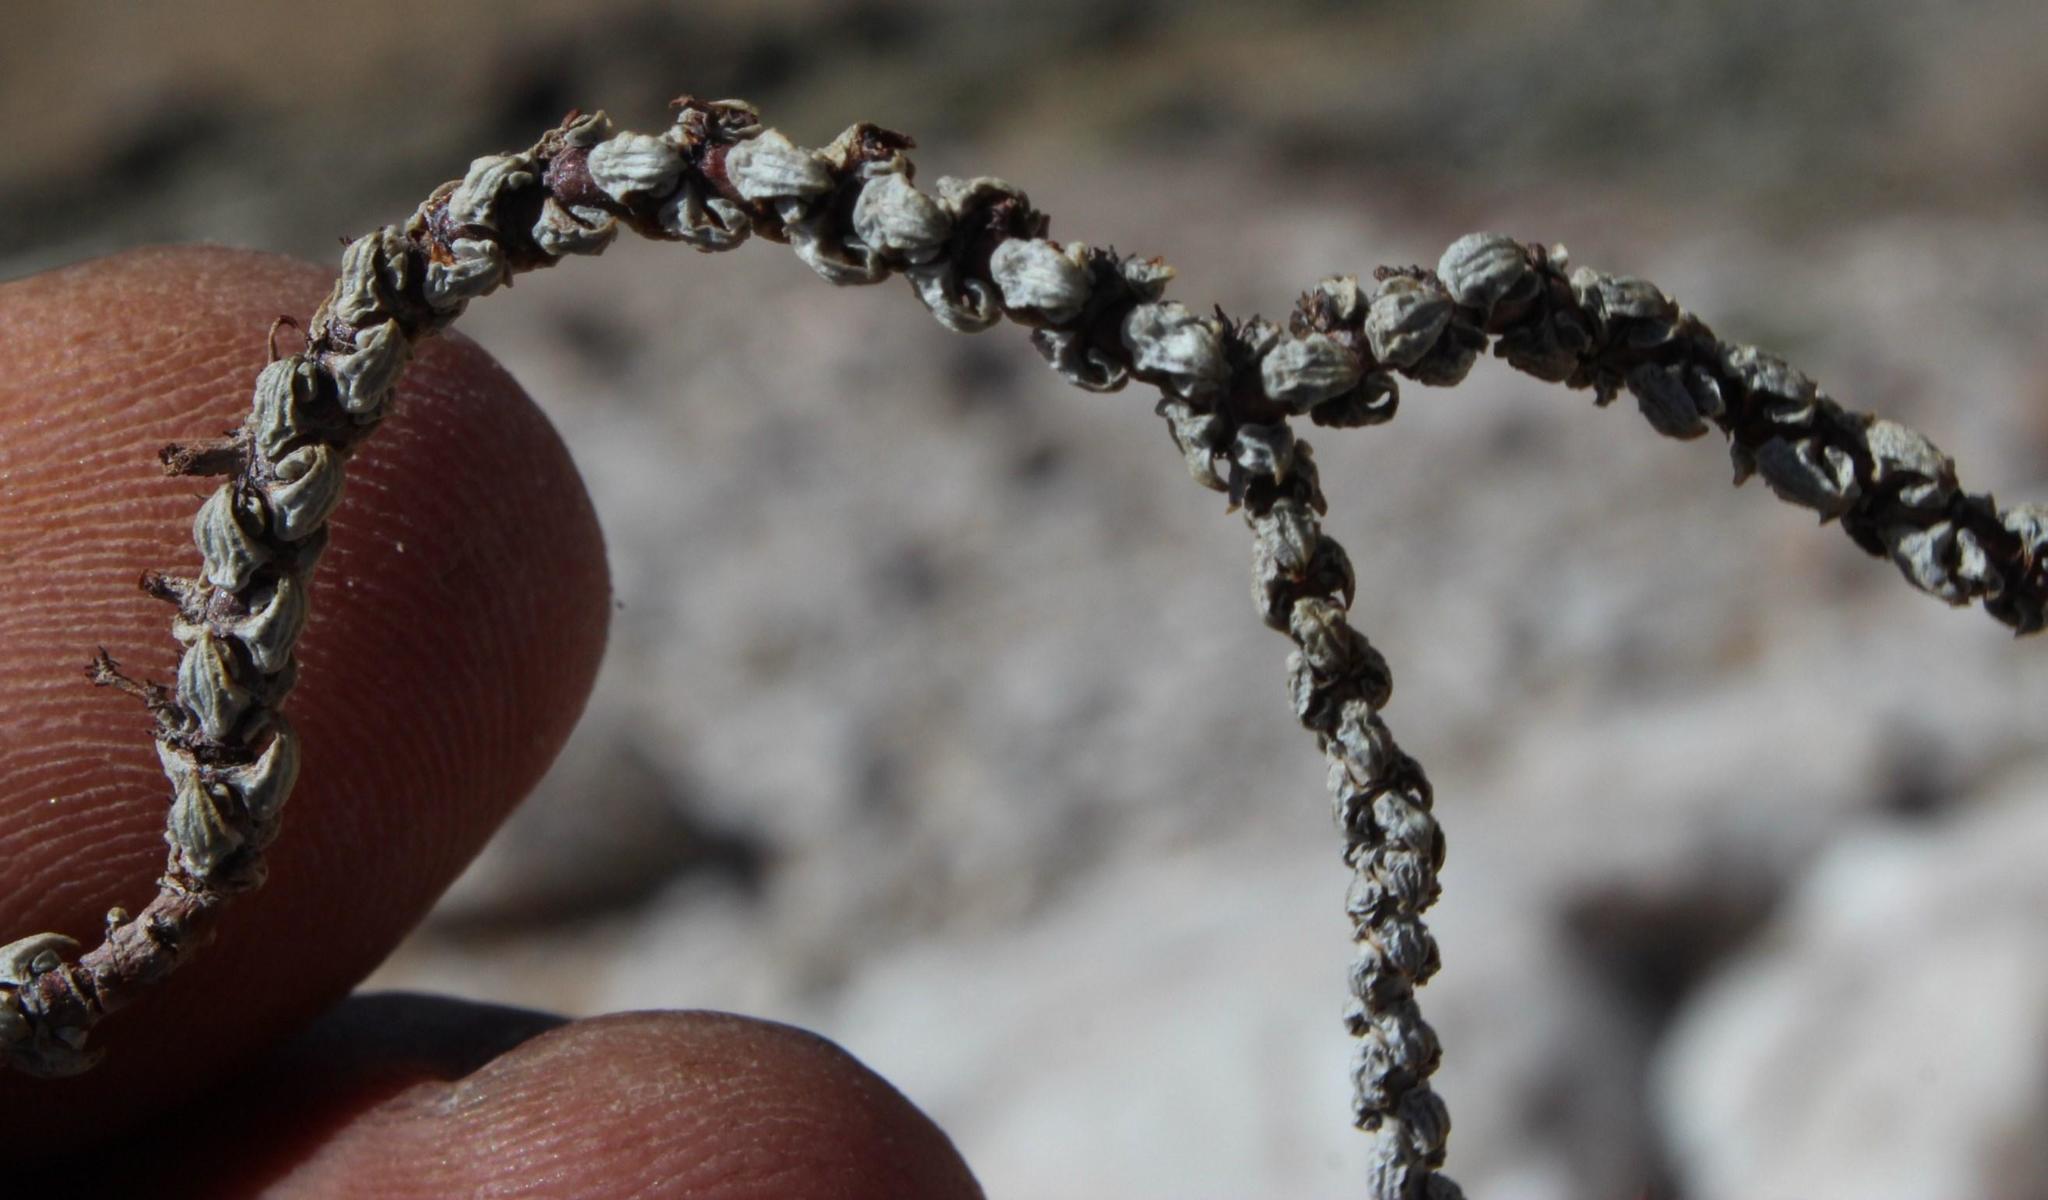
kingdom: Plantae
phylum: Tracheophyta
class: Magnoliopsida
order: Saxifragales
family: Crassulaceae
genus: Crassula
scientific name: Crassula muscosa
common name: Toy-cypress
